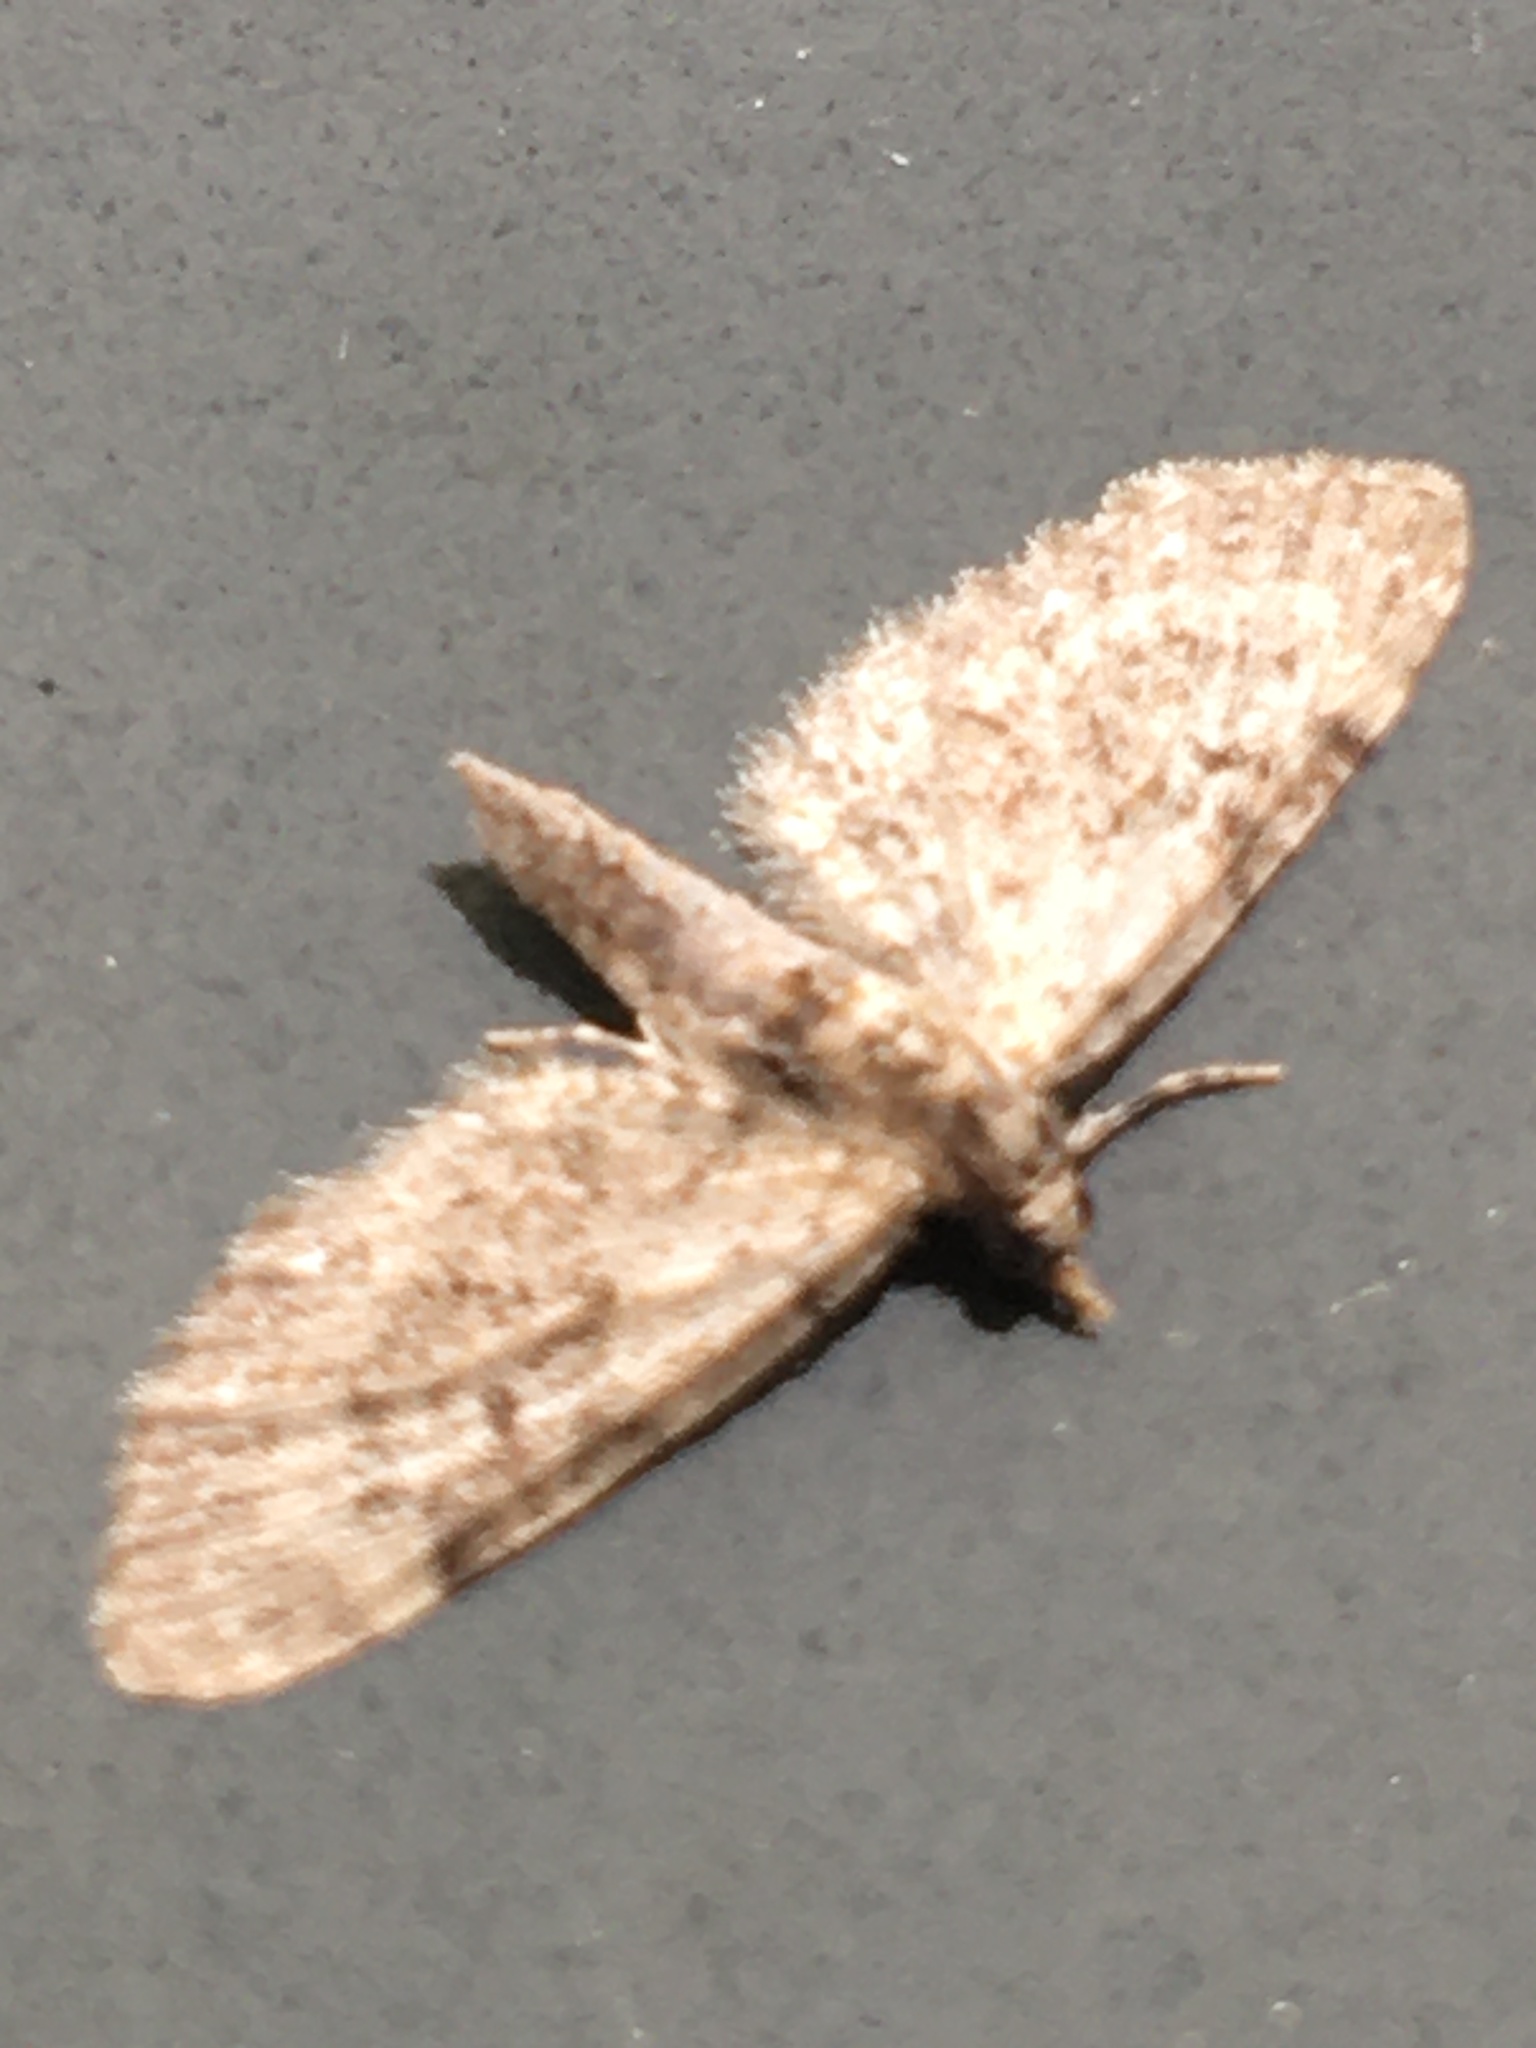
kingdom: Animalia
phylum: Arthropoda
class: Insecta
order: Lepidoptera
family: Geometridae
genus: Eupithecia
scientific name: Eupithecia miserulata
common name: Common eupithecia
